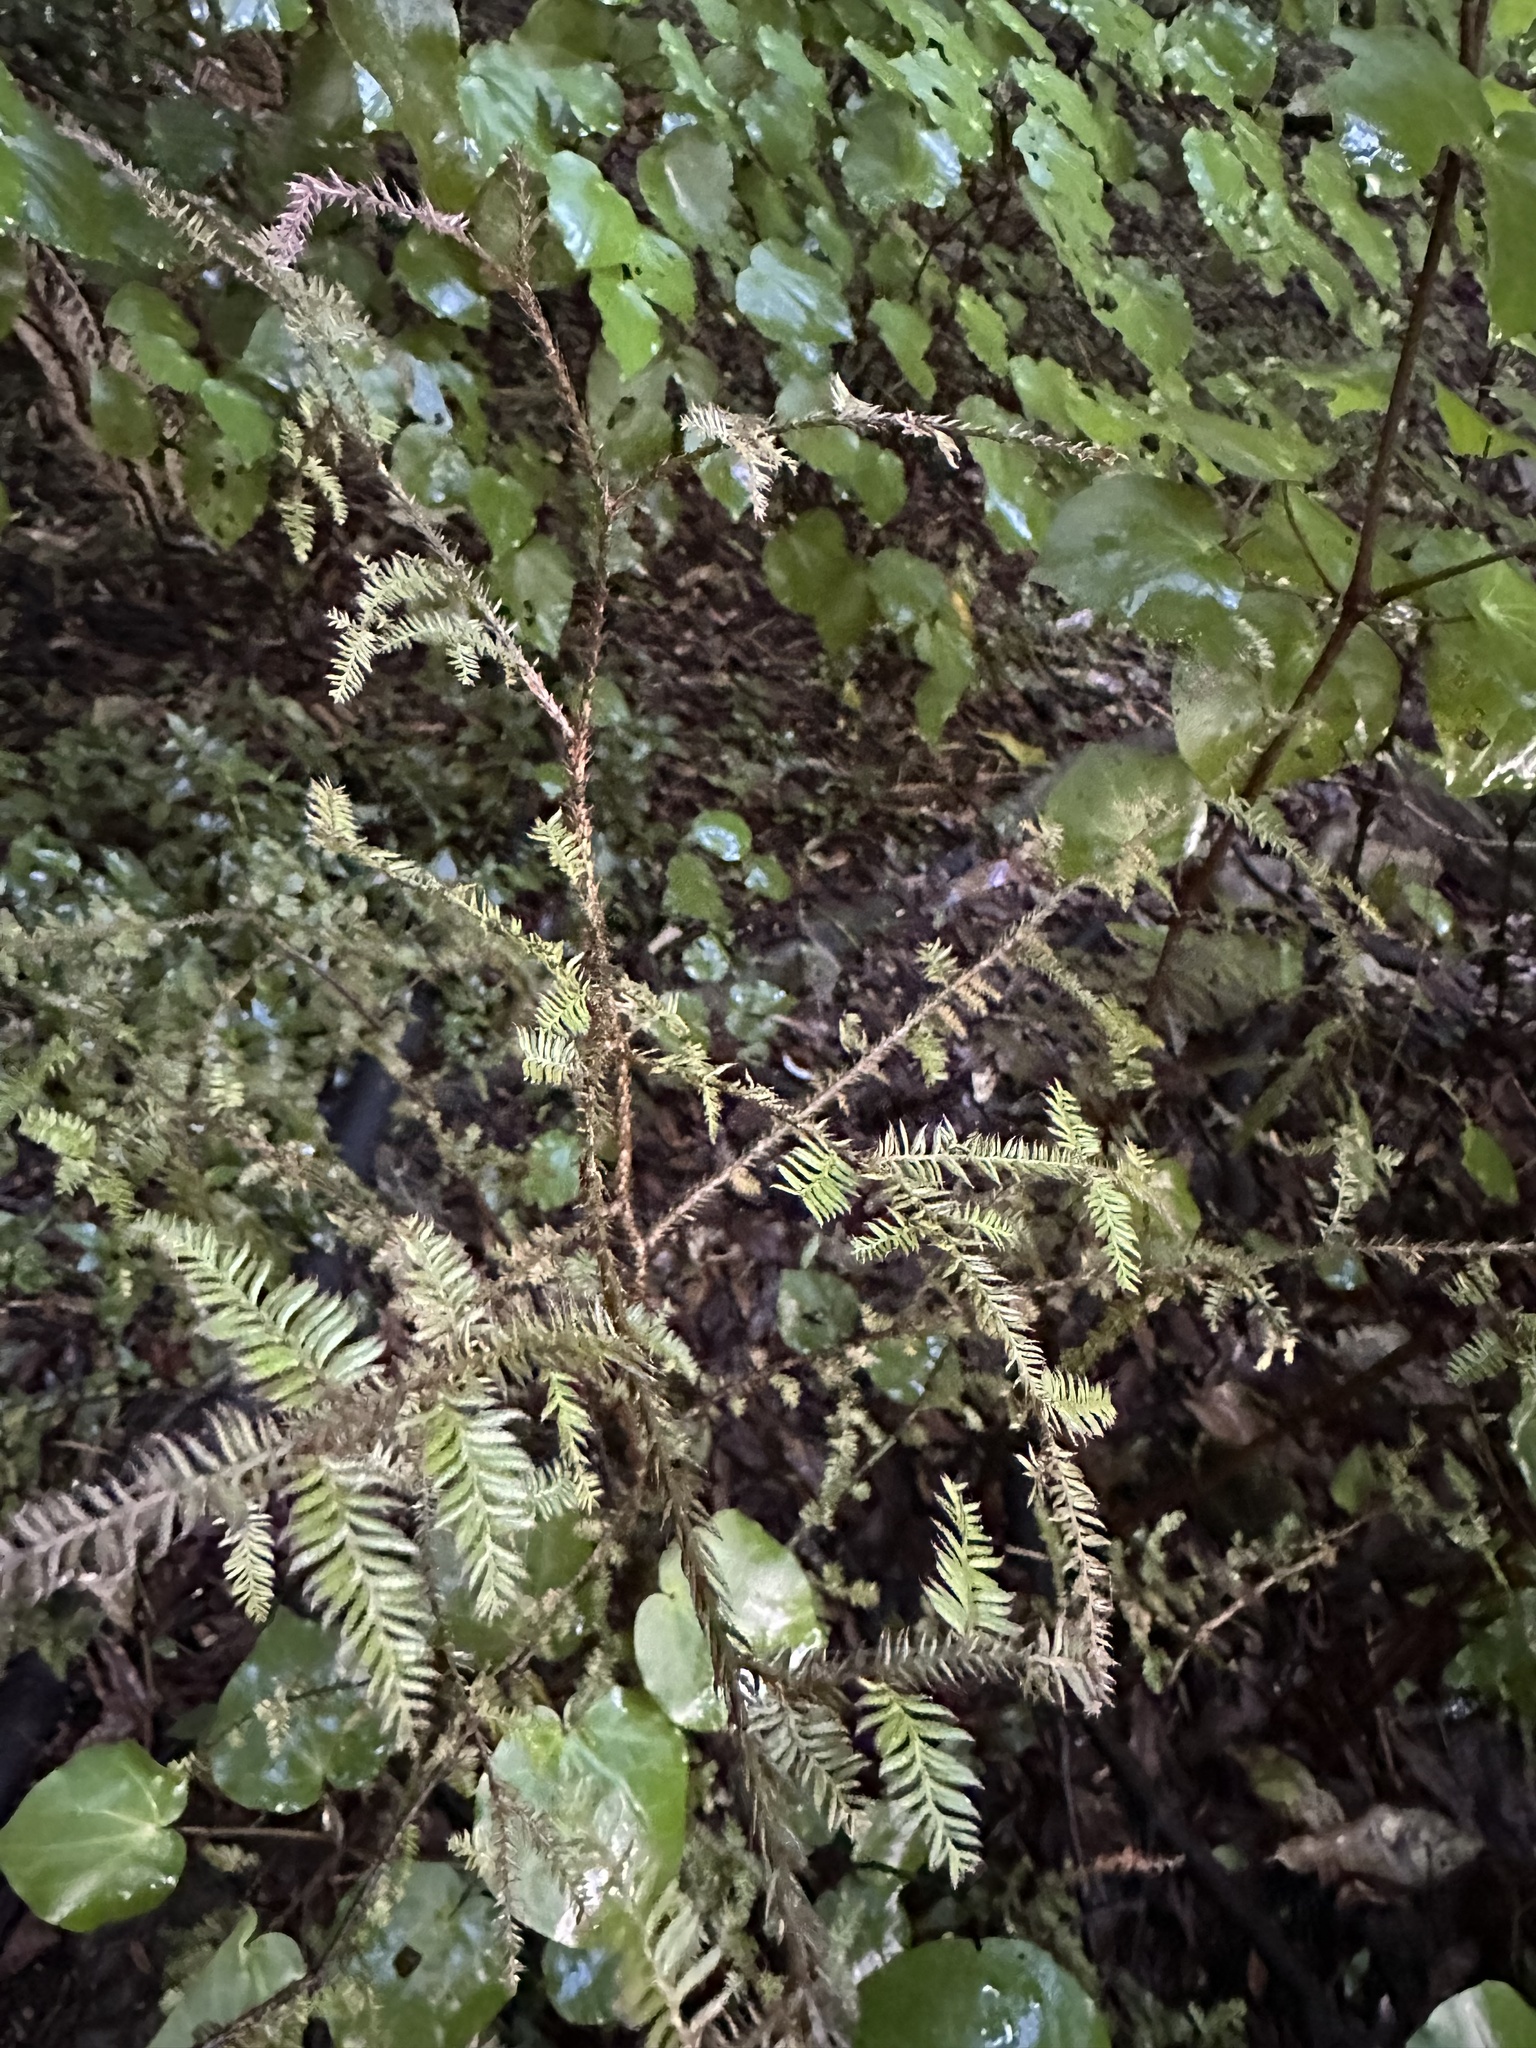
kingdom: Plantae
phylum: Tracheophyta
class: Pinopsida
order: Pinales
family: Podocarpaceae
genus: Dacrycarpus
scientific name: Dacrycarpus dacrydioides
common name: White pine
